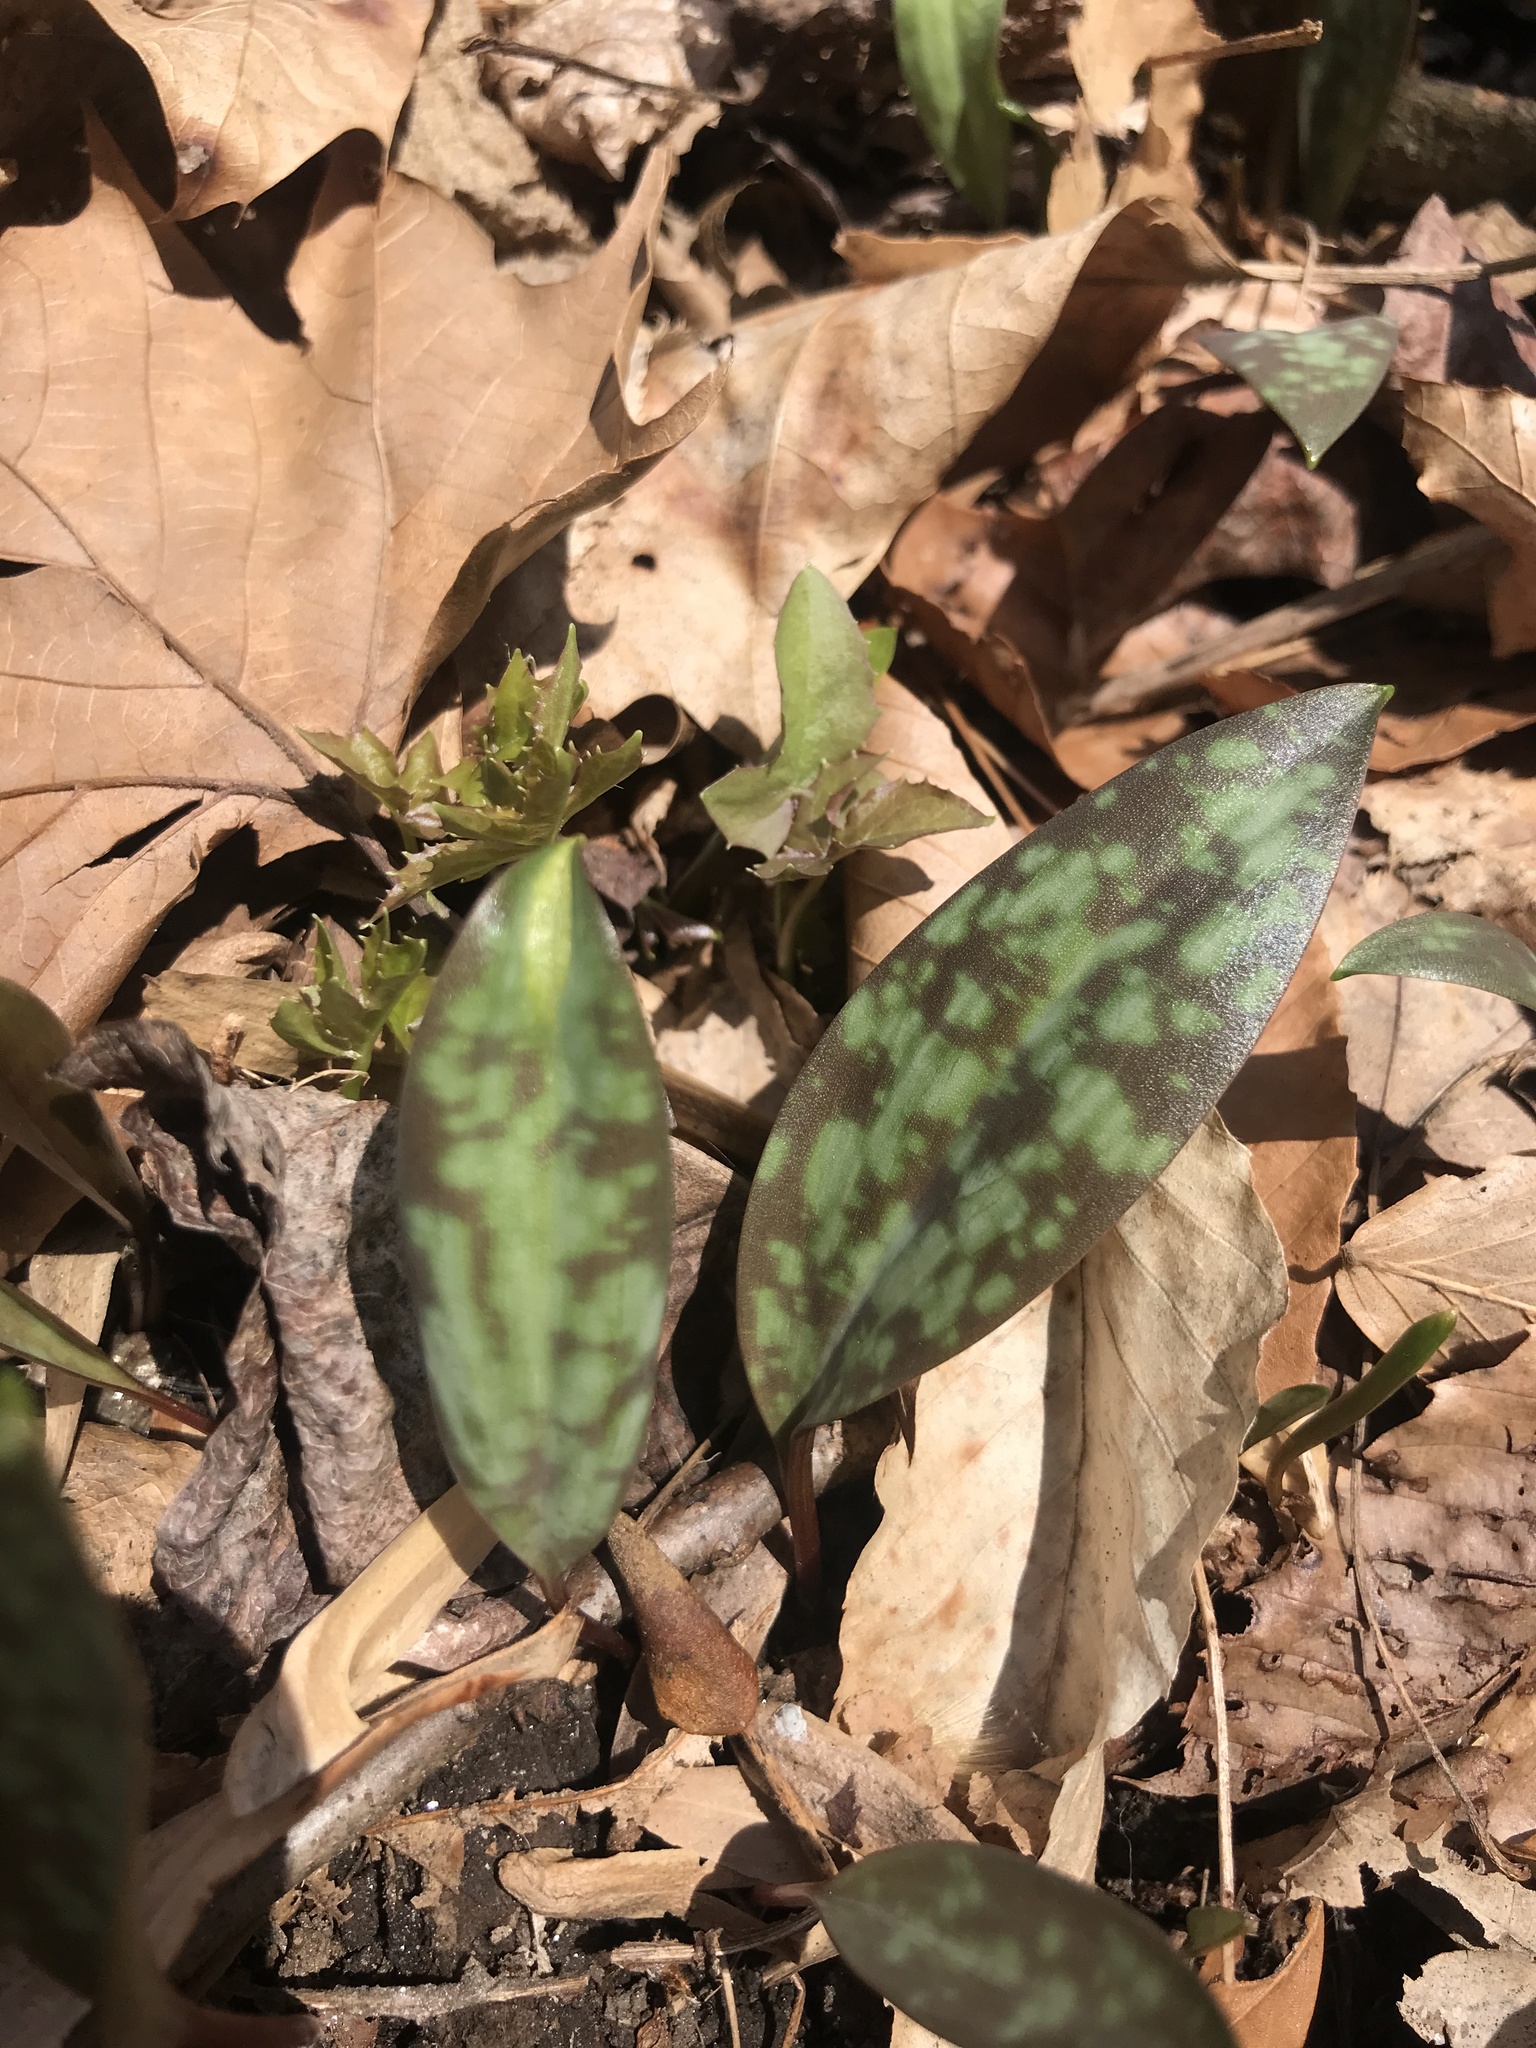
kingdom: Plantae
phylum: Tracheophyta
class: Liliopsida
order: Liliales
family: Liliaceae
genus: Erythronium
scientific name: Erythronium americanum
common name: Yellow adder's-tongue
